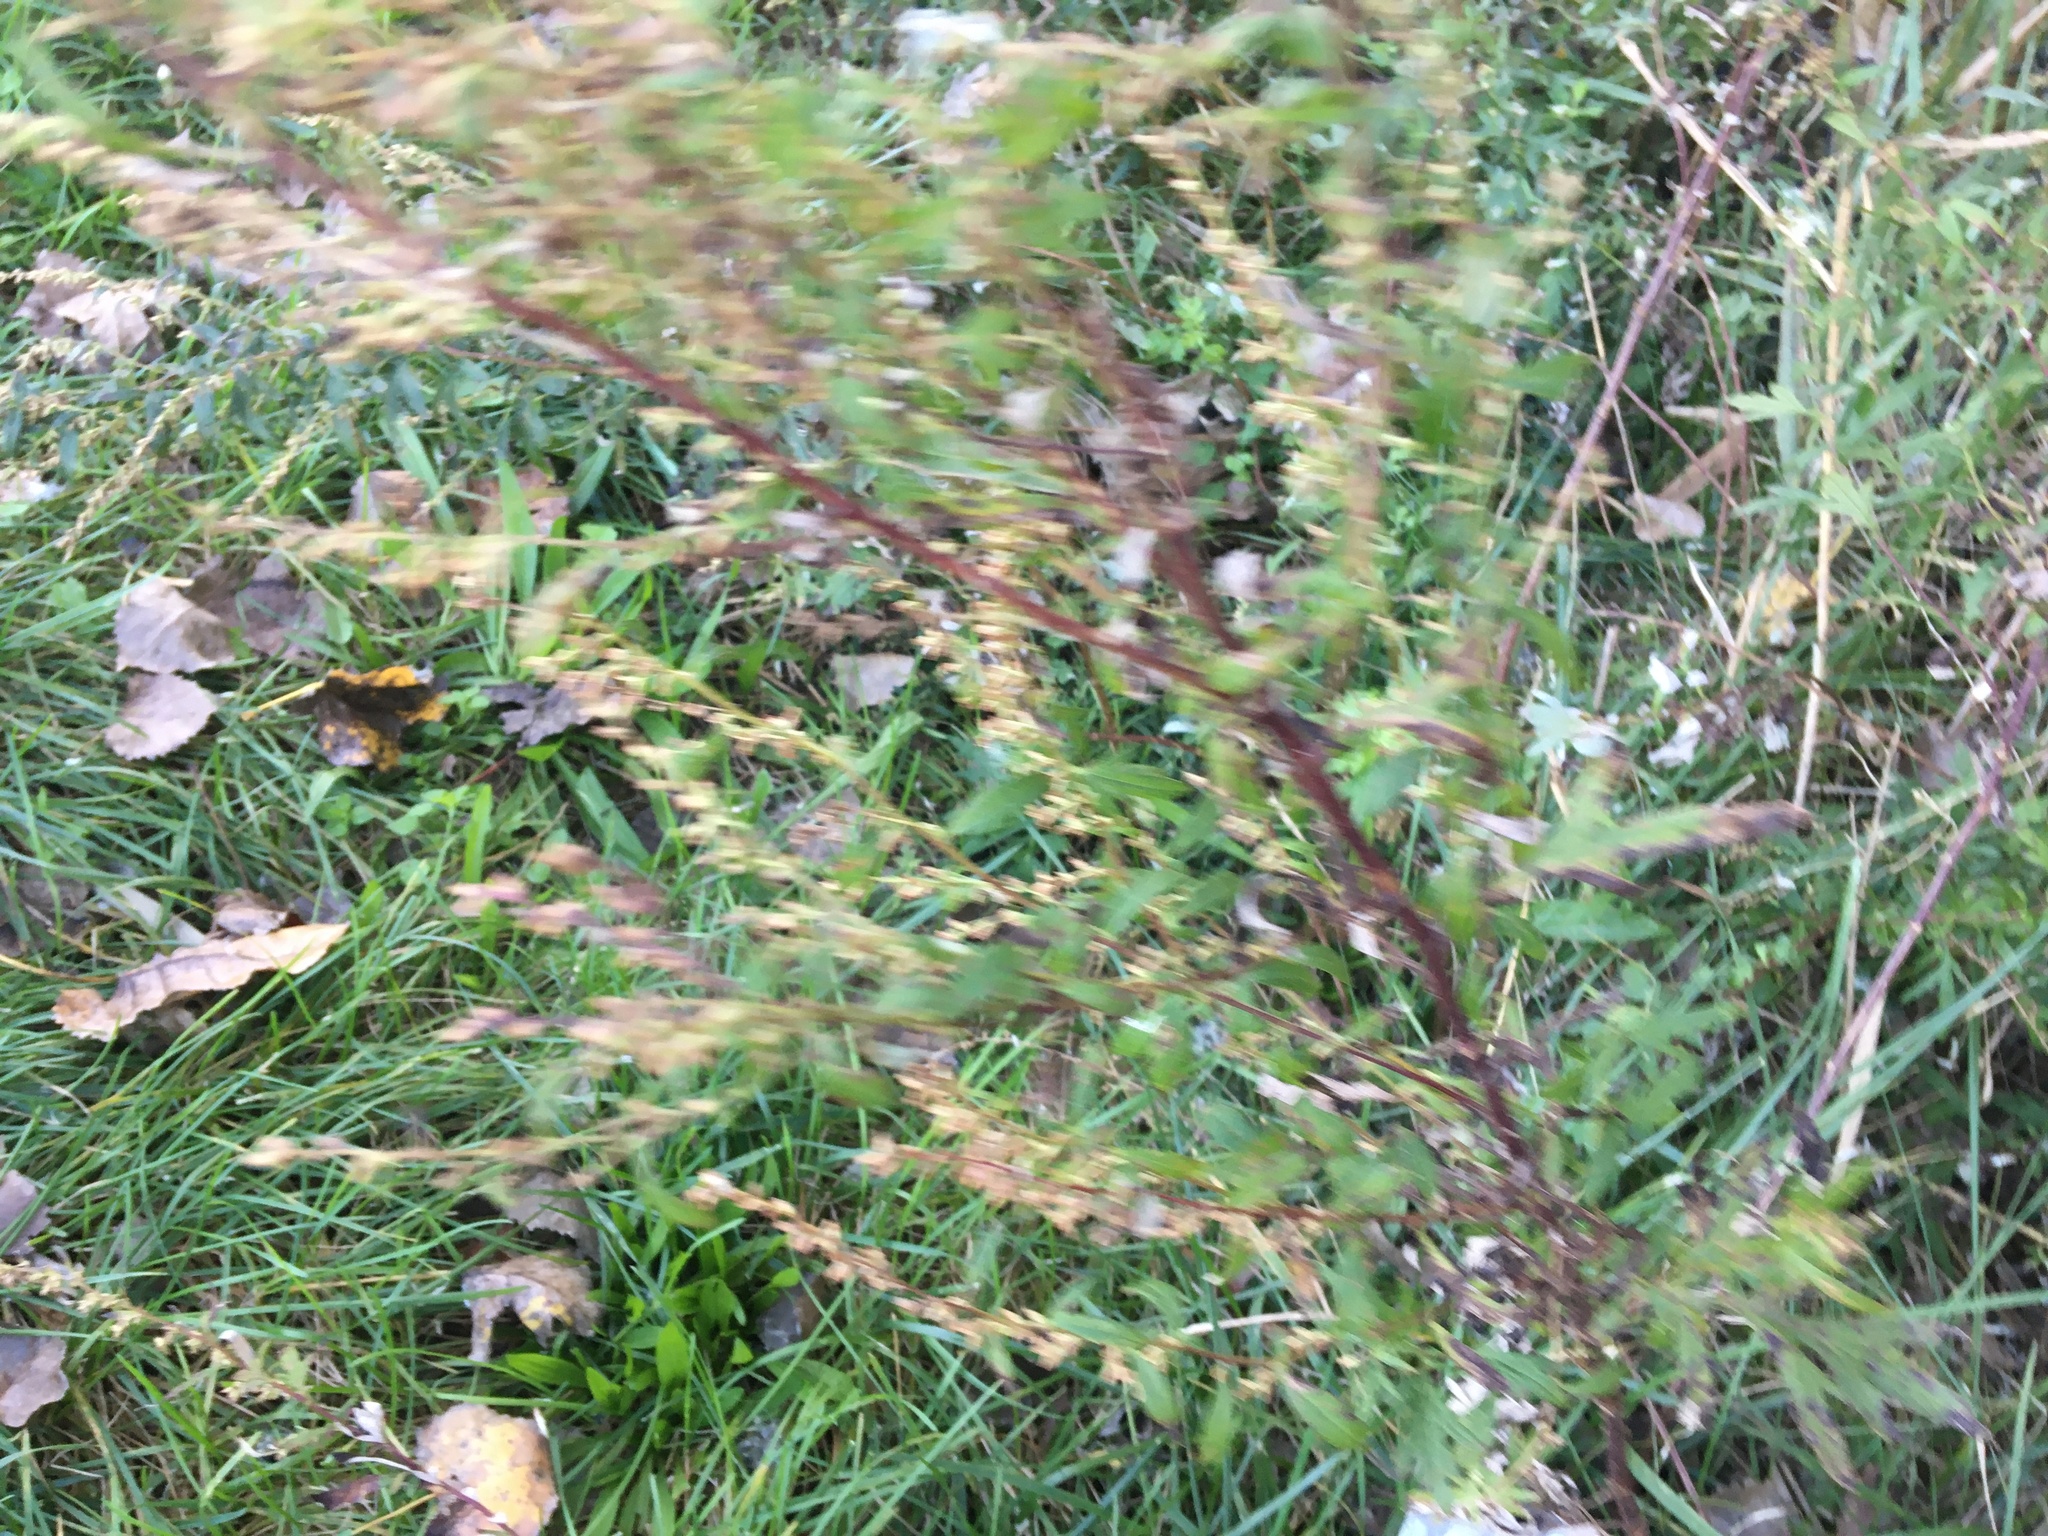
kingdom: Plantae
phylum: Tracheophyta
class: Magnoliopsida
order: Asterales
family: Asteraceae
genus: Artemisia
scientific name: Artemisia vulgaris
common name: Mugwort
